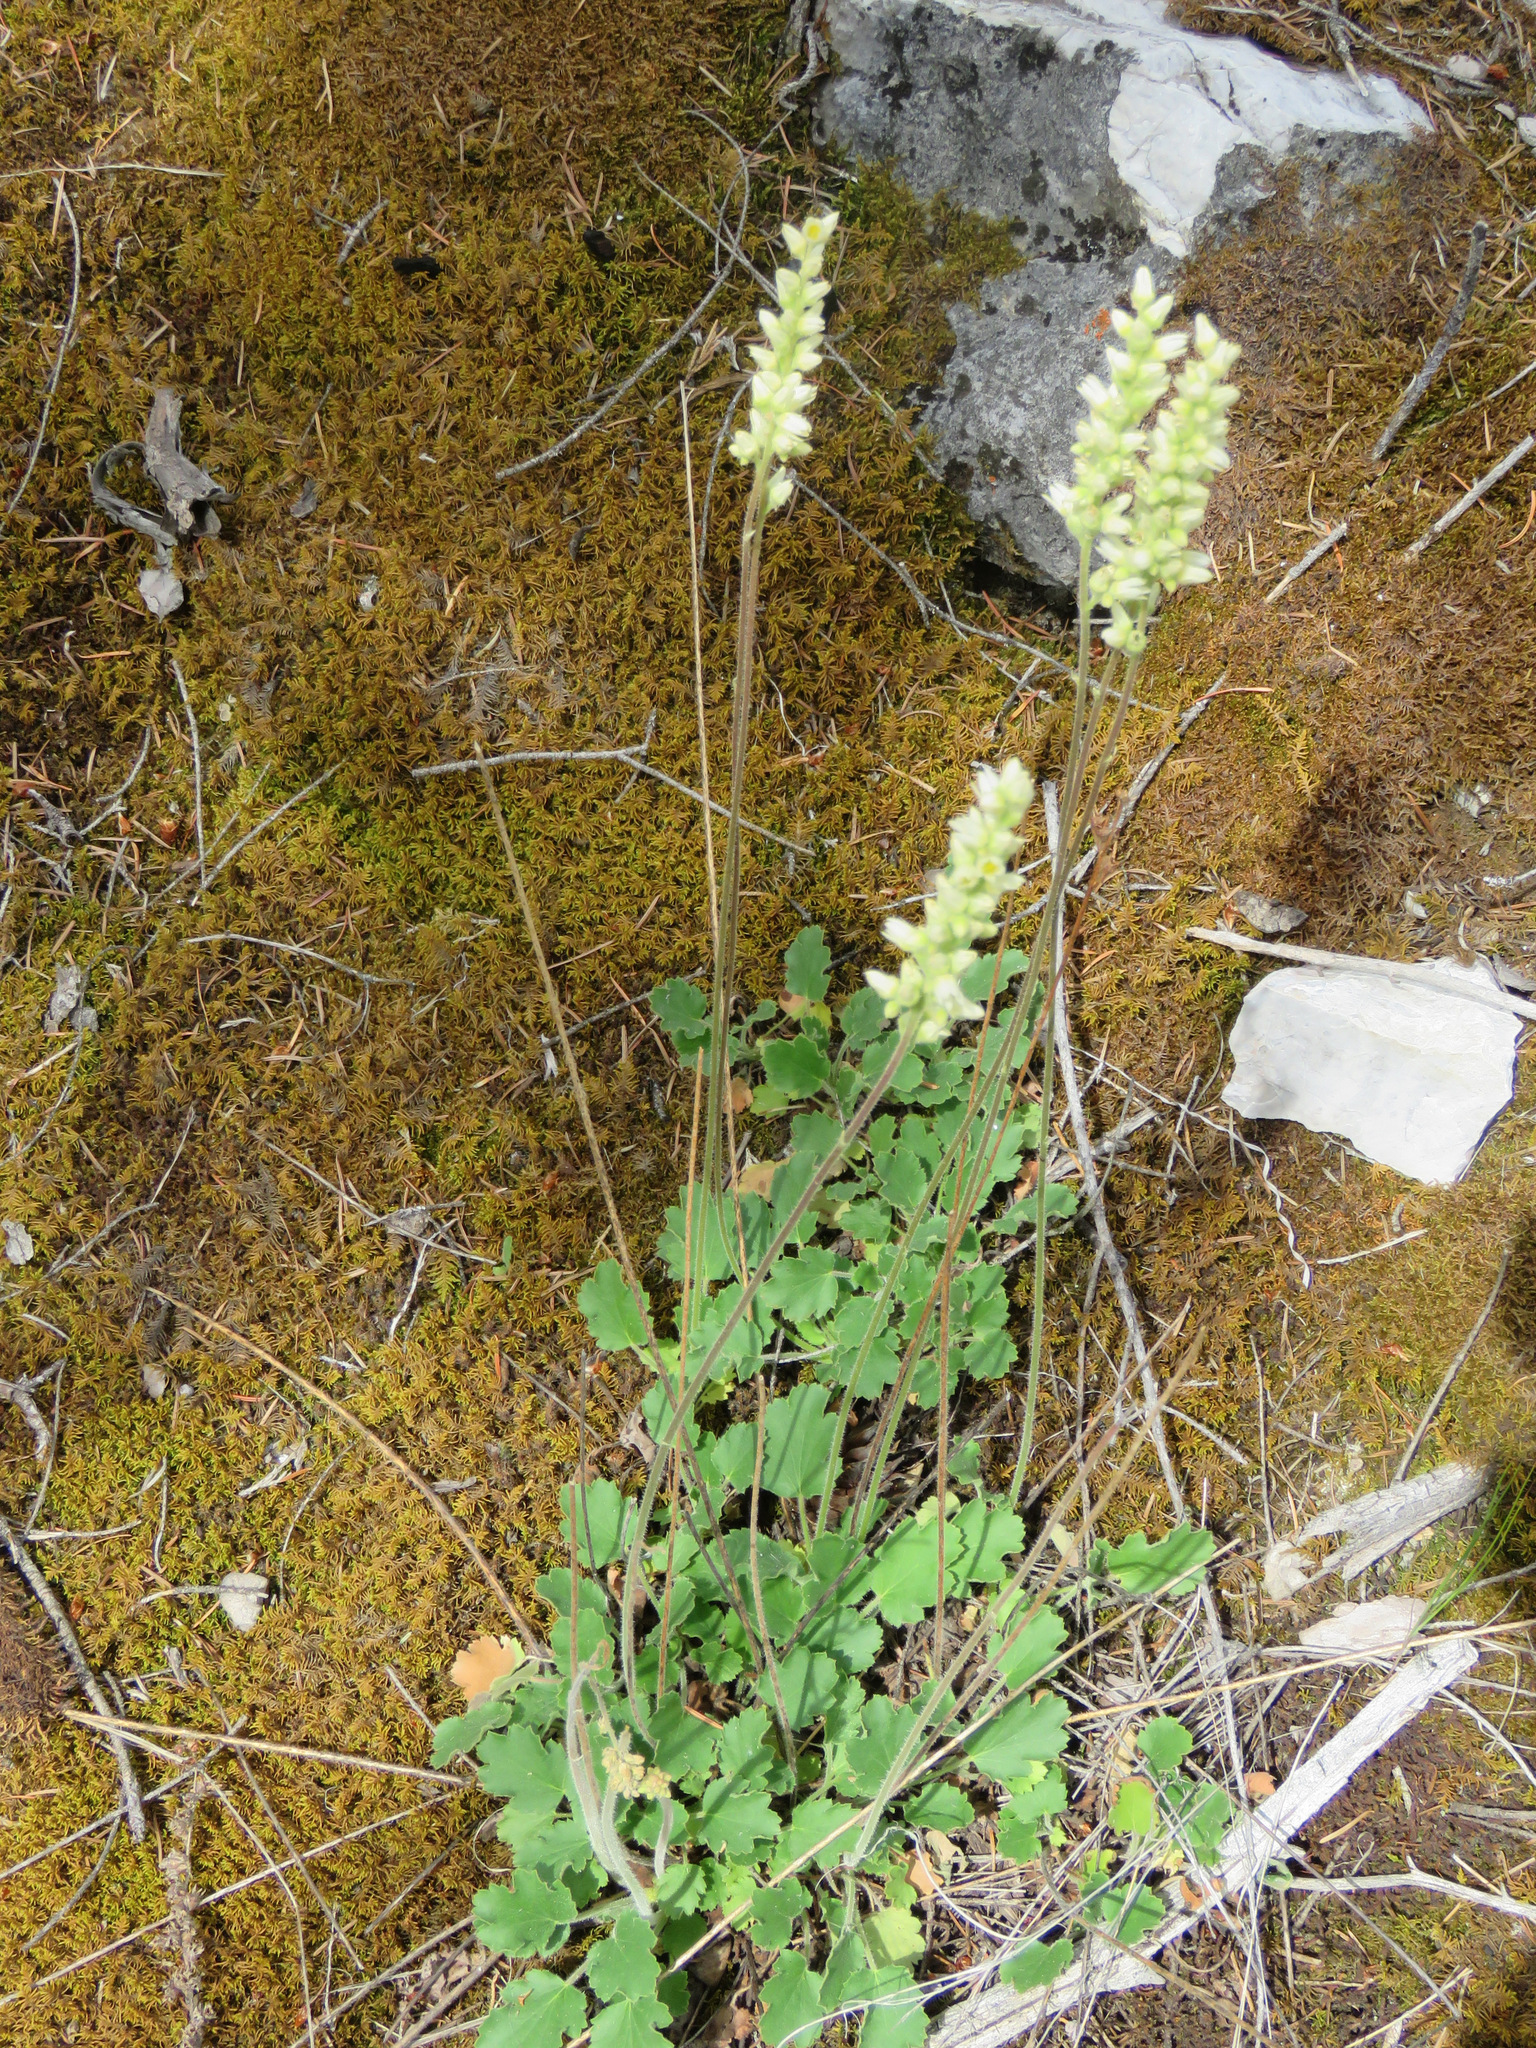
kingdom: Plantae
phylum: Tracheophyta
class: Magnoliopsida
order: Saxifragales
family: Saxifragaceae
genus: Heuchera
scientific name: Heuchera cylindrica
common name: Mat alumroot
